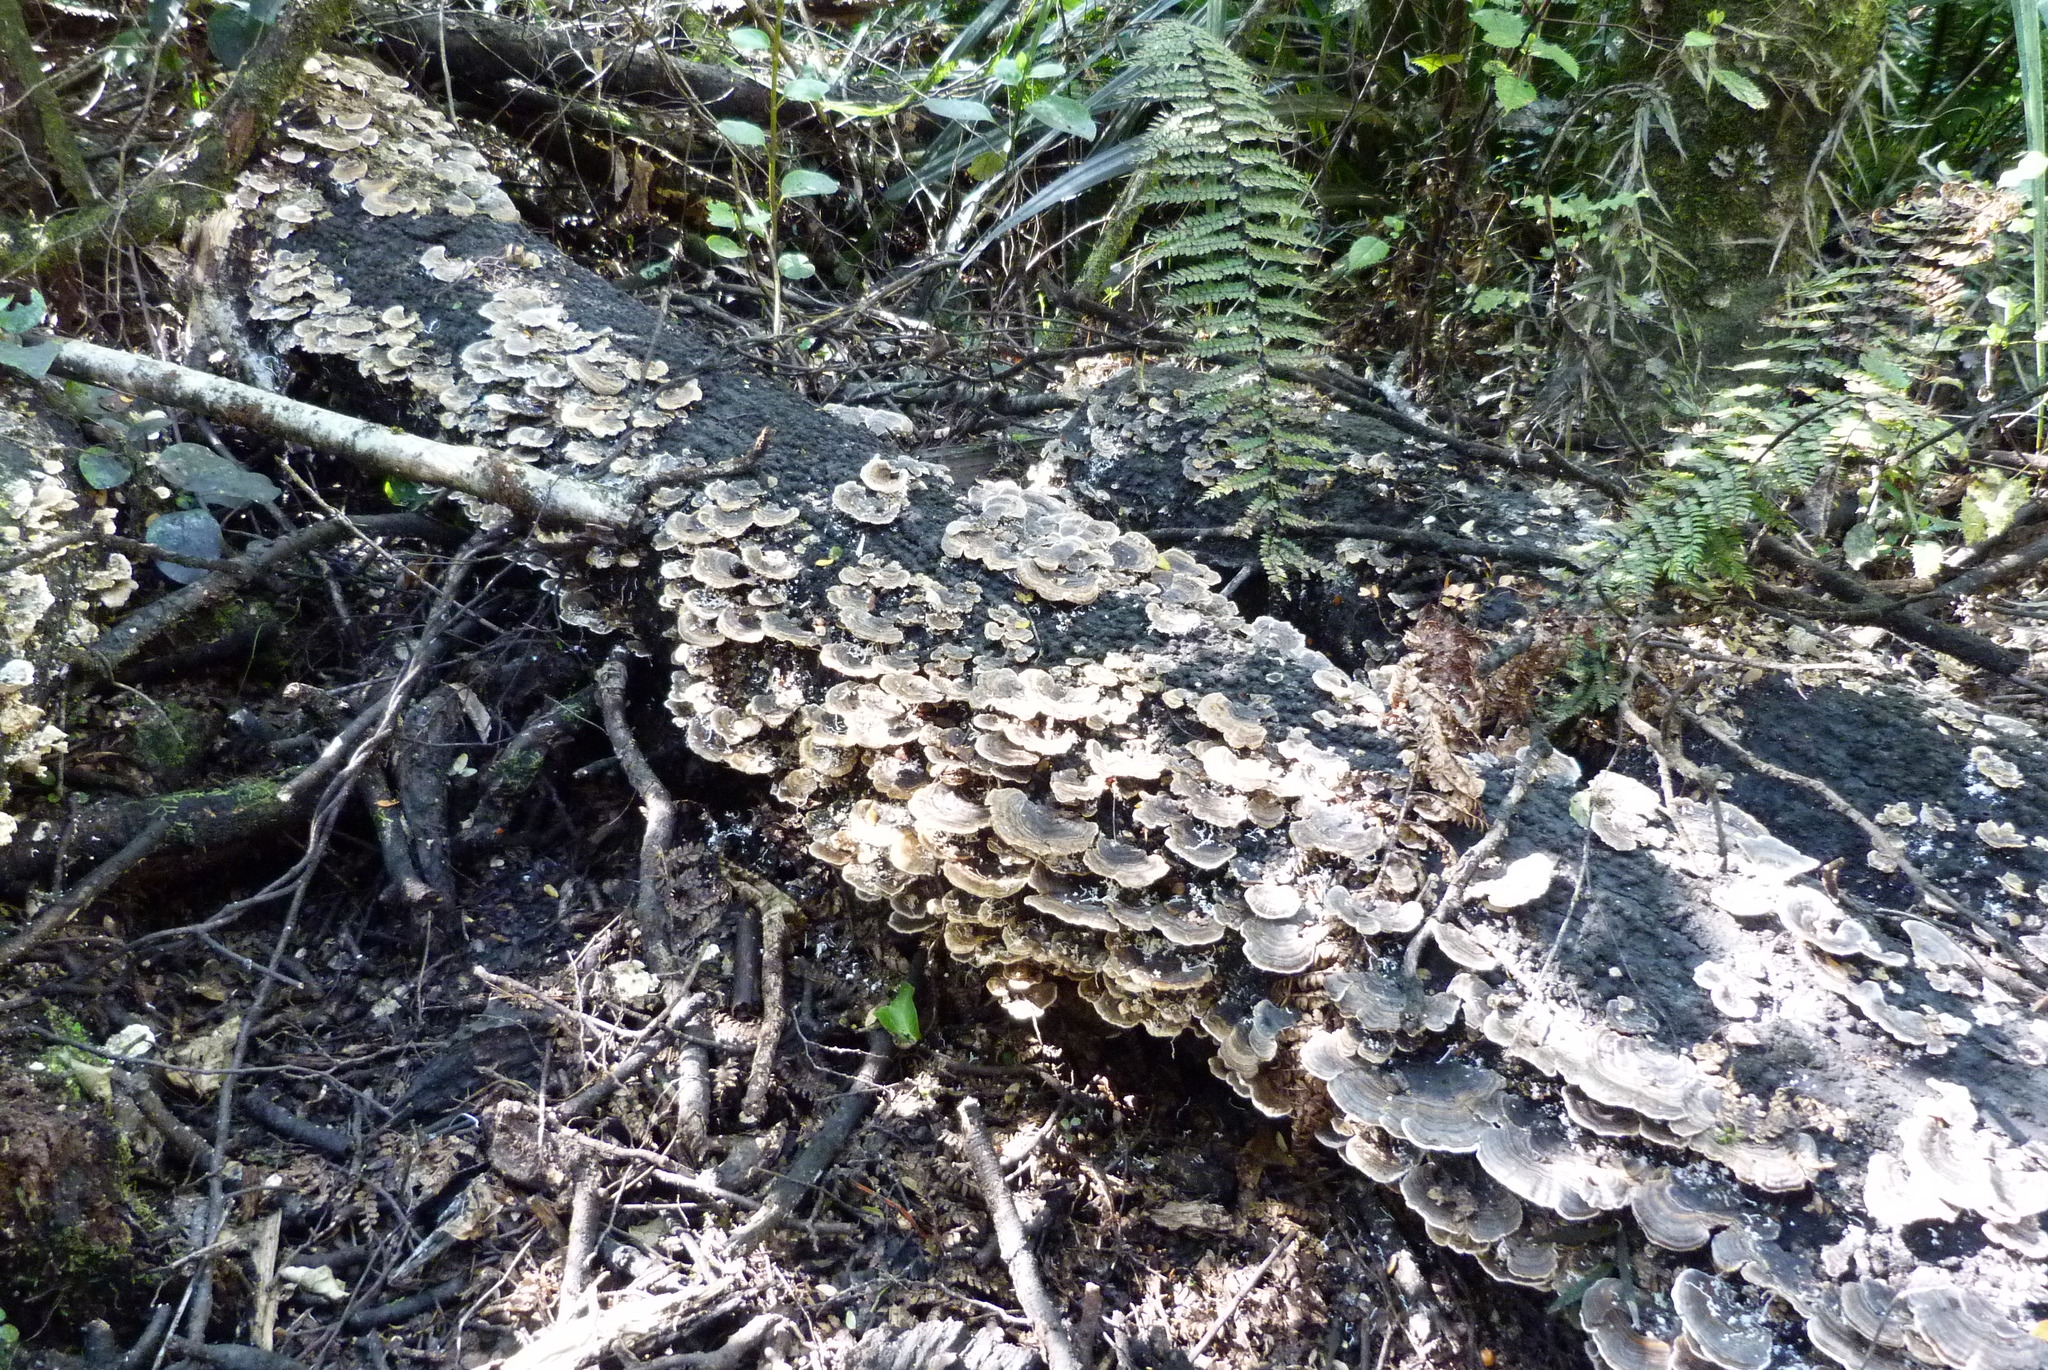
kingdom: Fungi
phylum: Basidiomycota
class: Agaricomycetes
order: Polyporales
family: Polyporaceae
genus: Trametes
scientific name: Trametes versicolor
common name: Turkeytail
